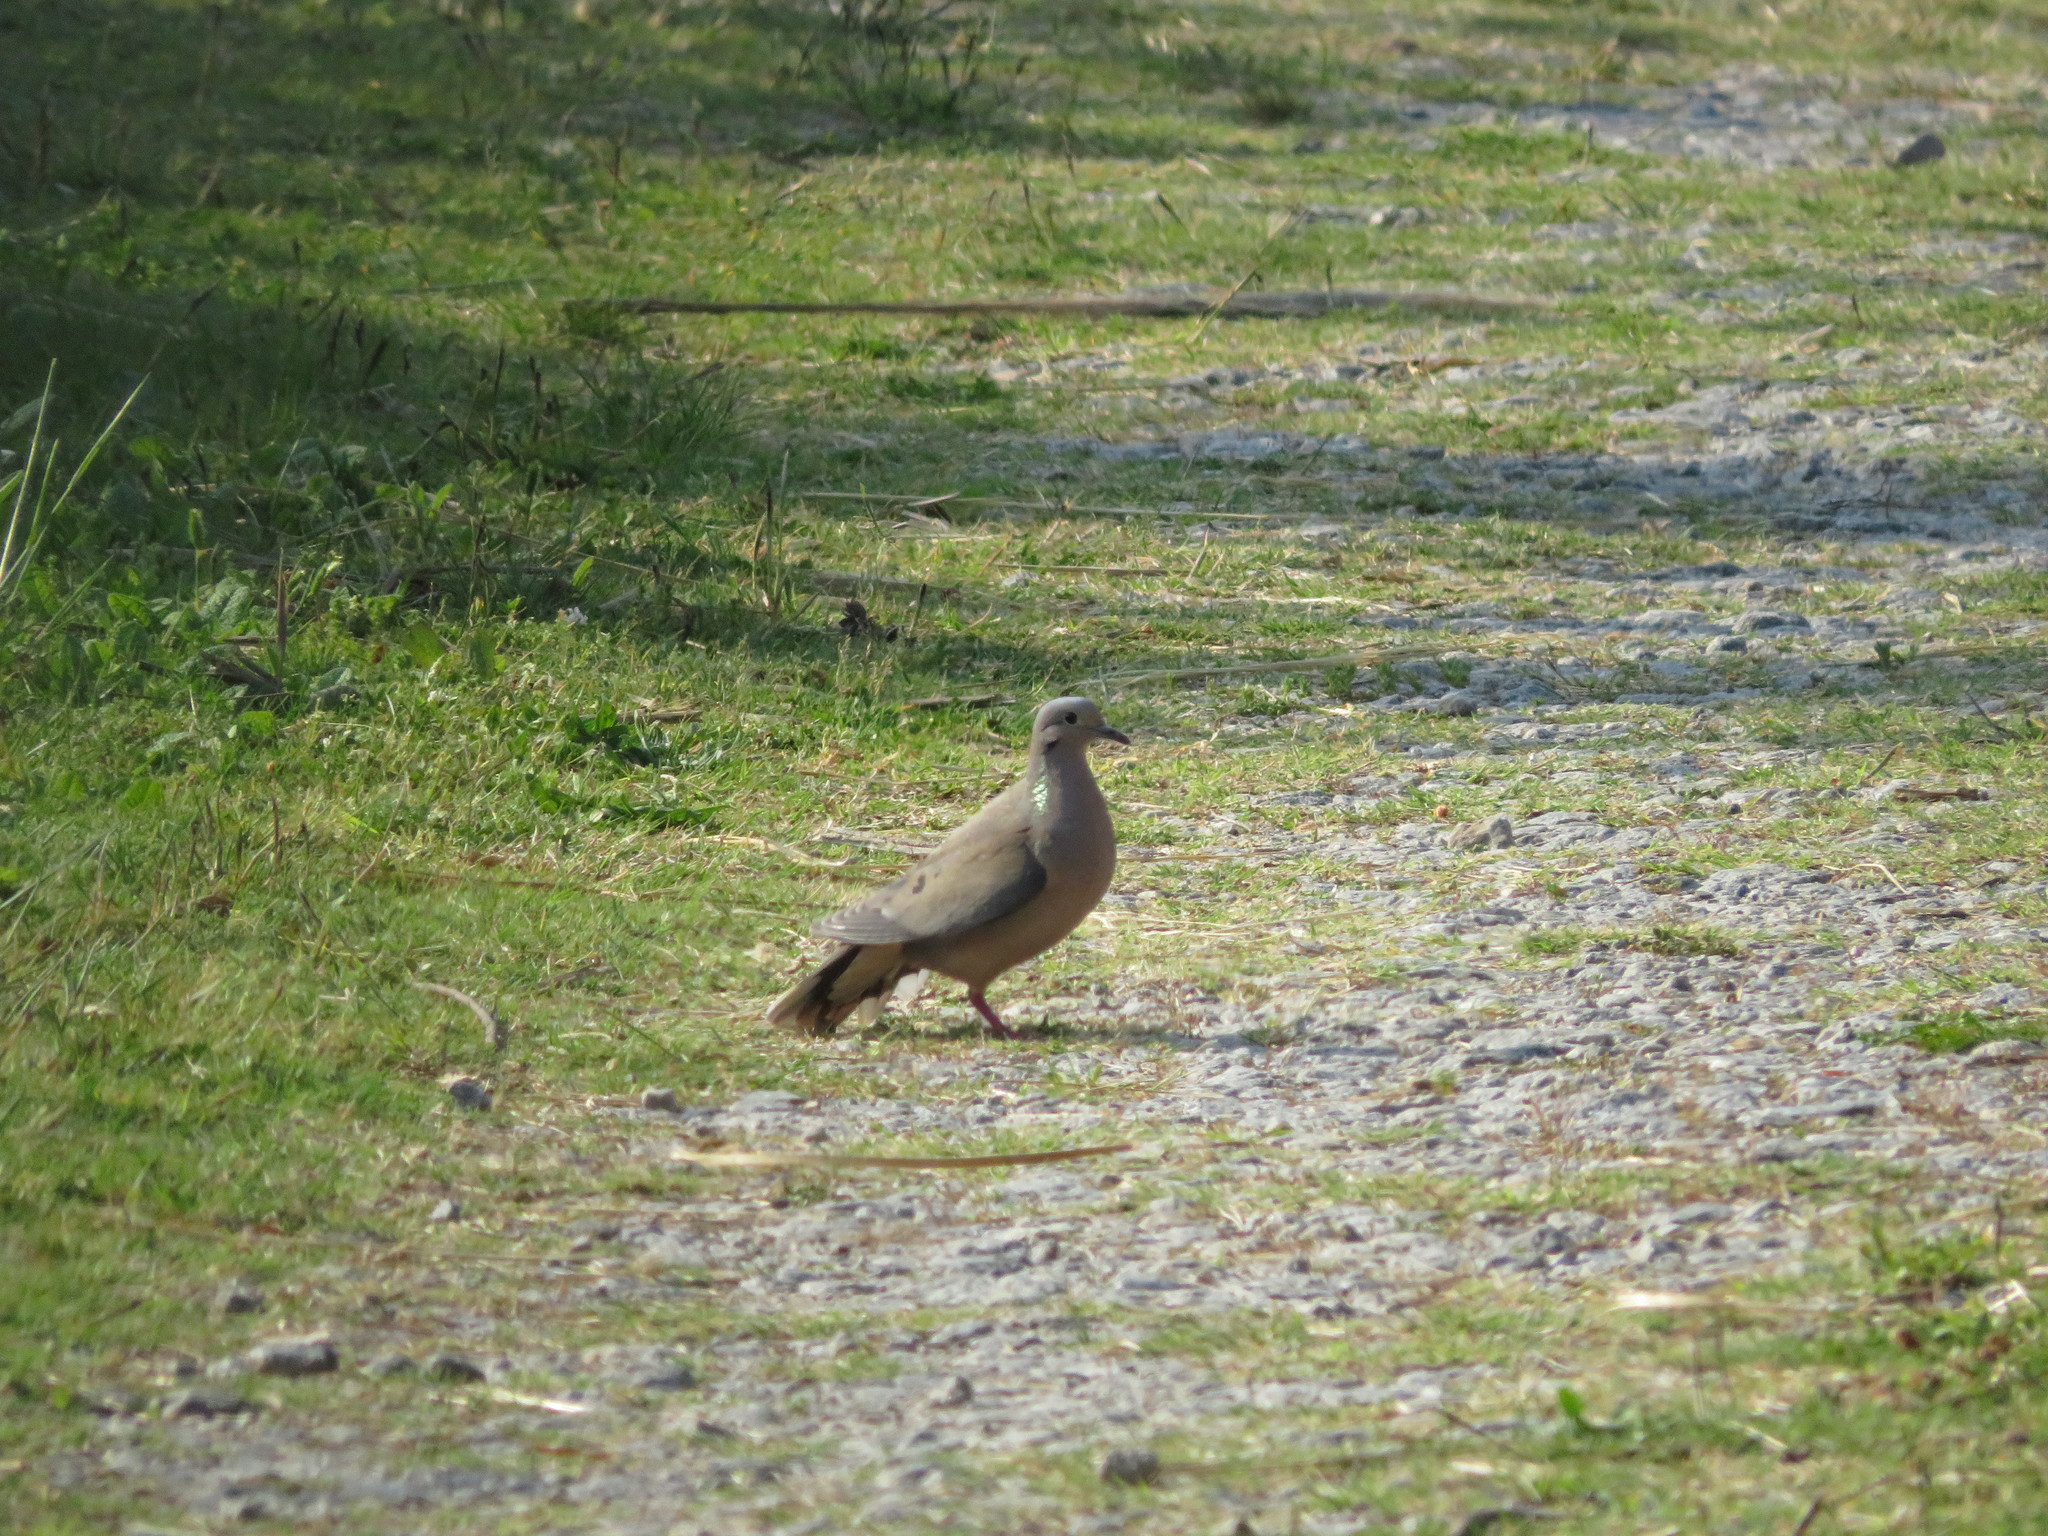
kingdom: Animalia
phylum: Chordata
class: Aves
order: Columbiformes
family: Columbidae
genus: Zenaida
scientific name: Zenaida auriculata
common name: Eared dove
